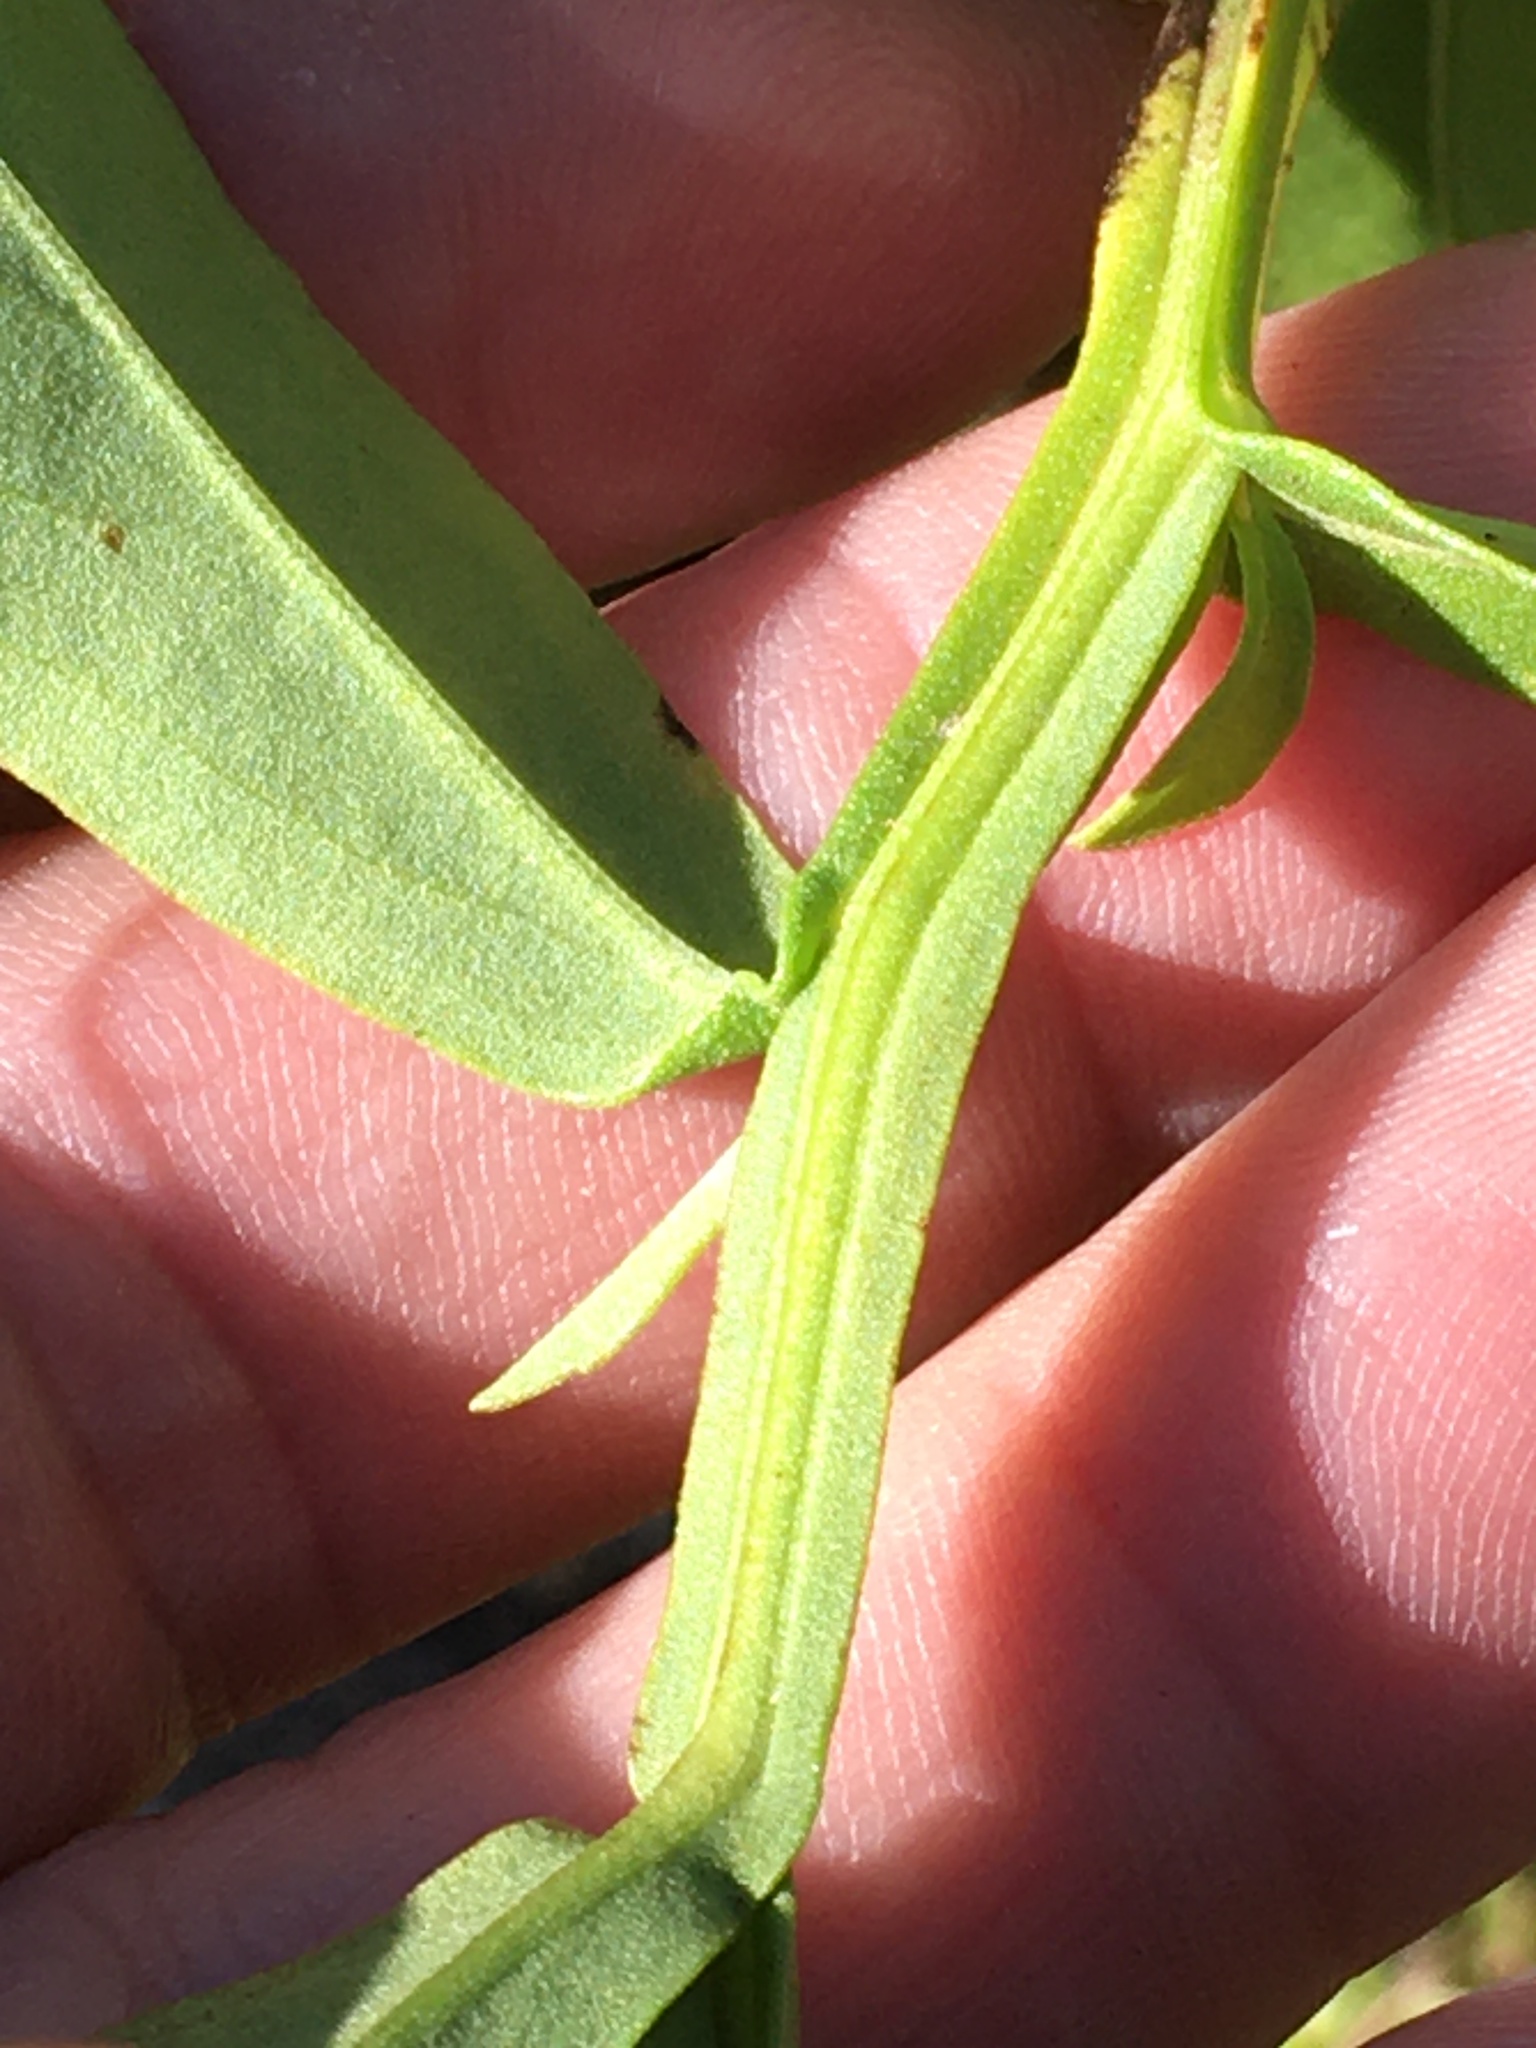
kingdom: Plantae
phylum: Tracheophyta
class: Magnoliopsida
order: Asterales
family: Asteraceae
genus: Helenium
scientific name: Helenium autumnale
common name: Sneezeweed
